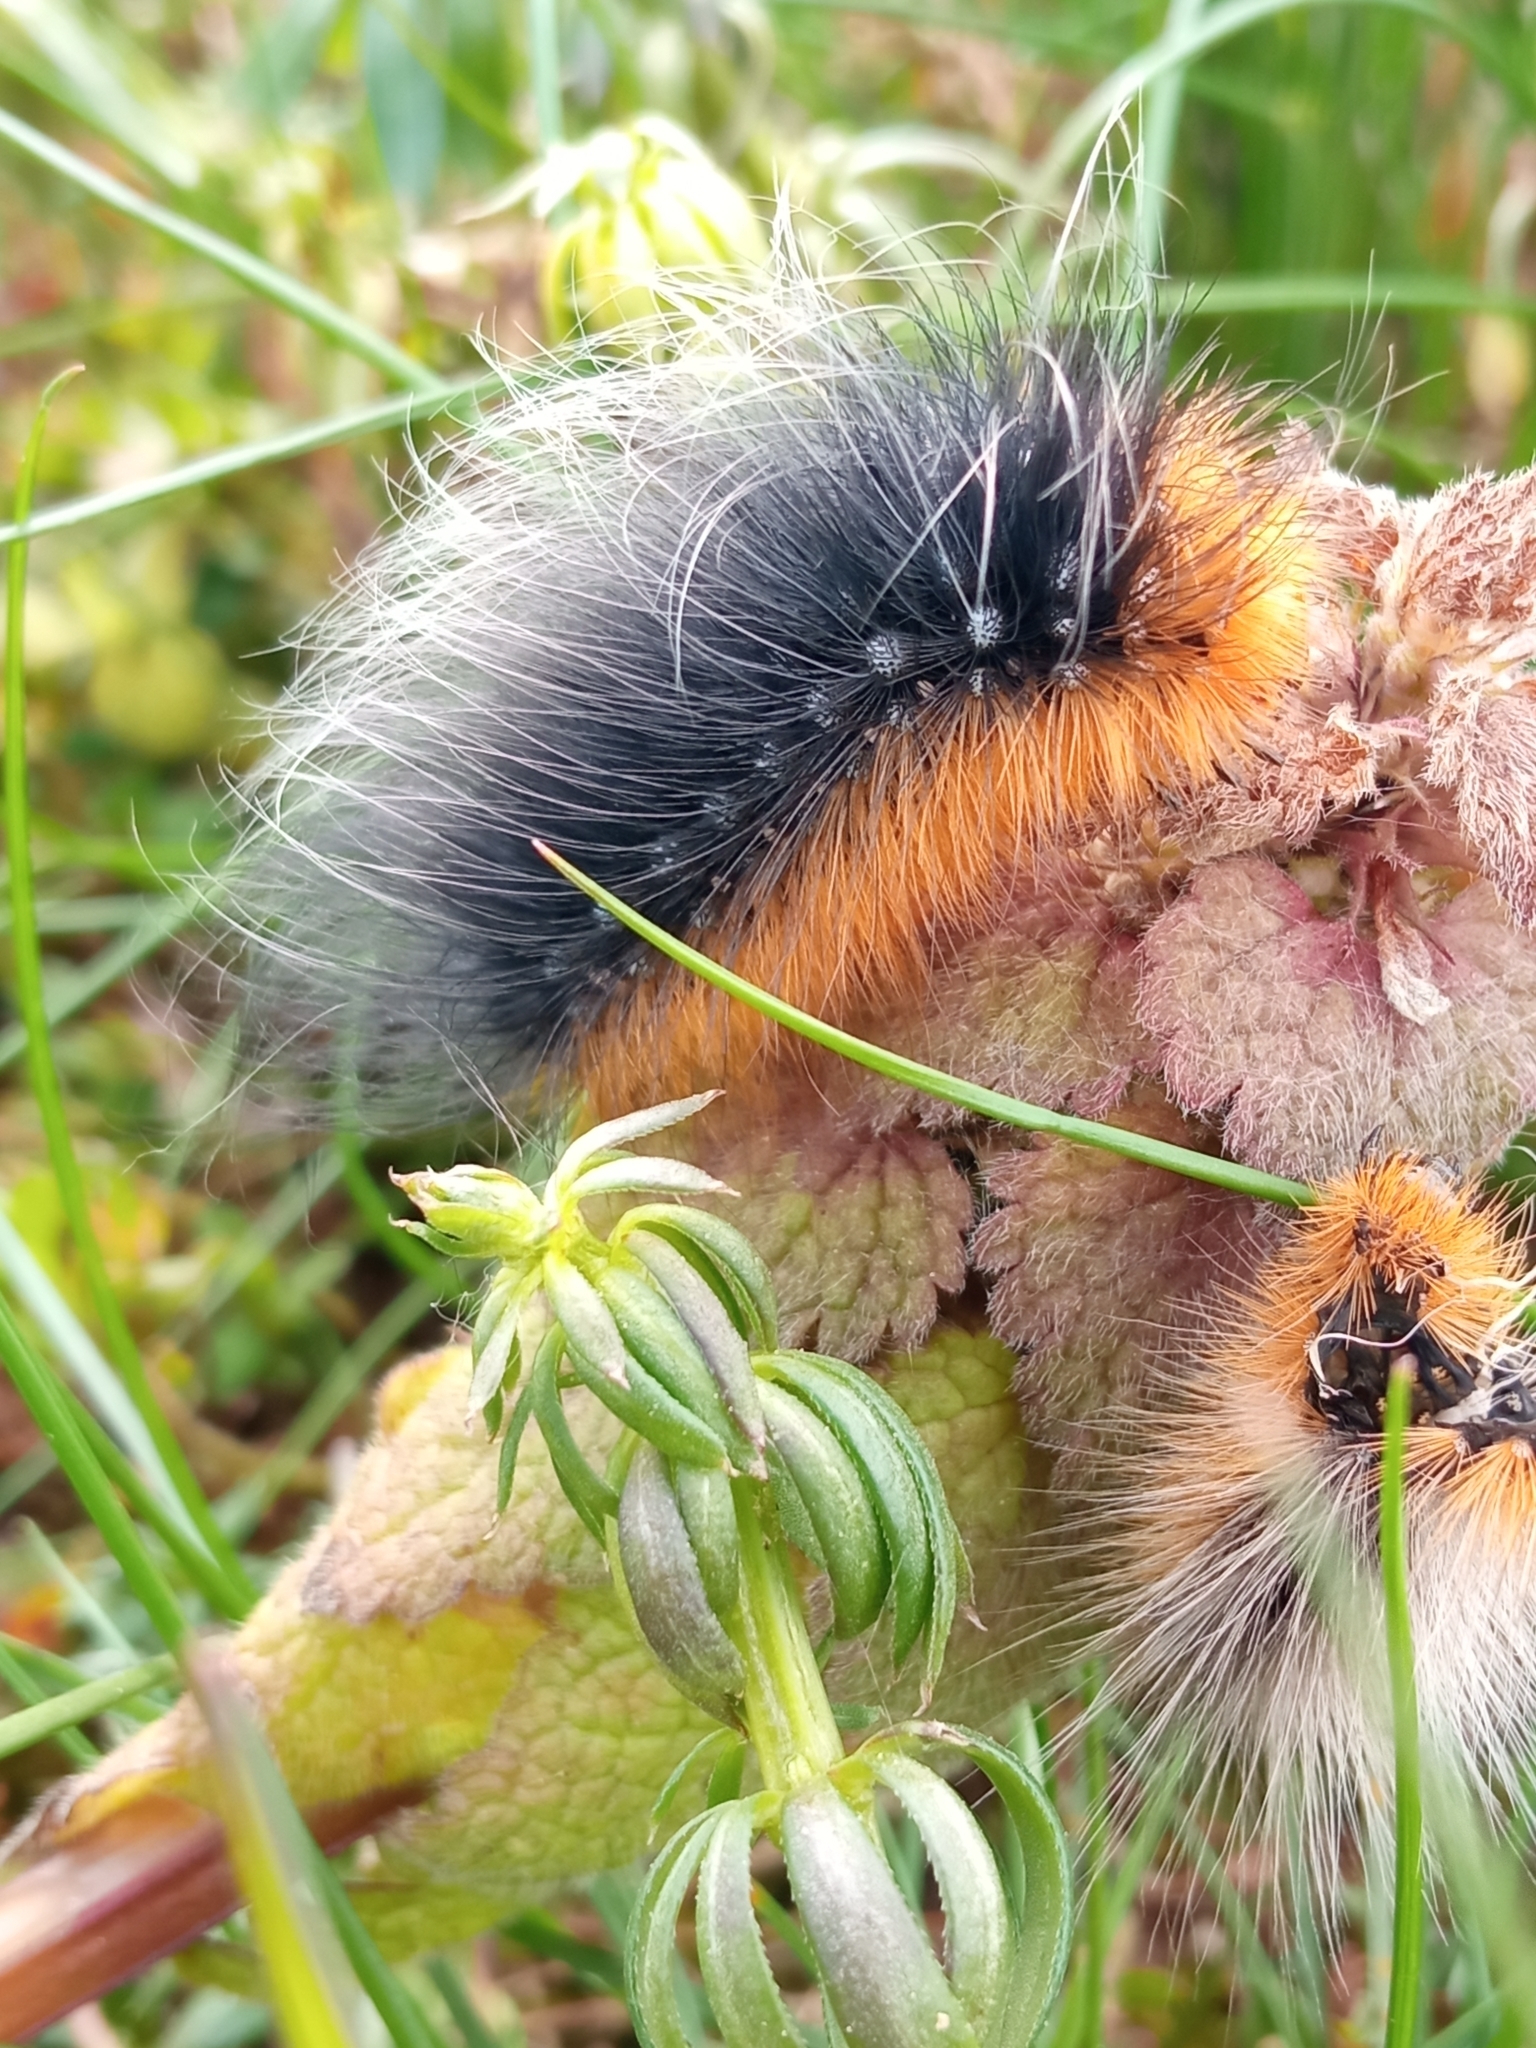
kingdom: Animalia
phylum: Arthropoda
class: Insecta
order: Lepidoptera
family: Erebidae
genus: Arctia
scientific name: Arctia caja
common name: Garden tiger
